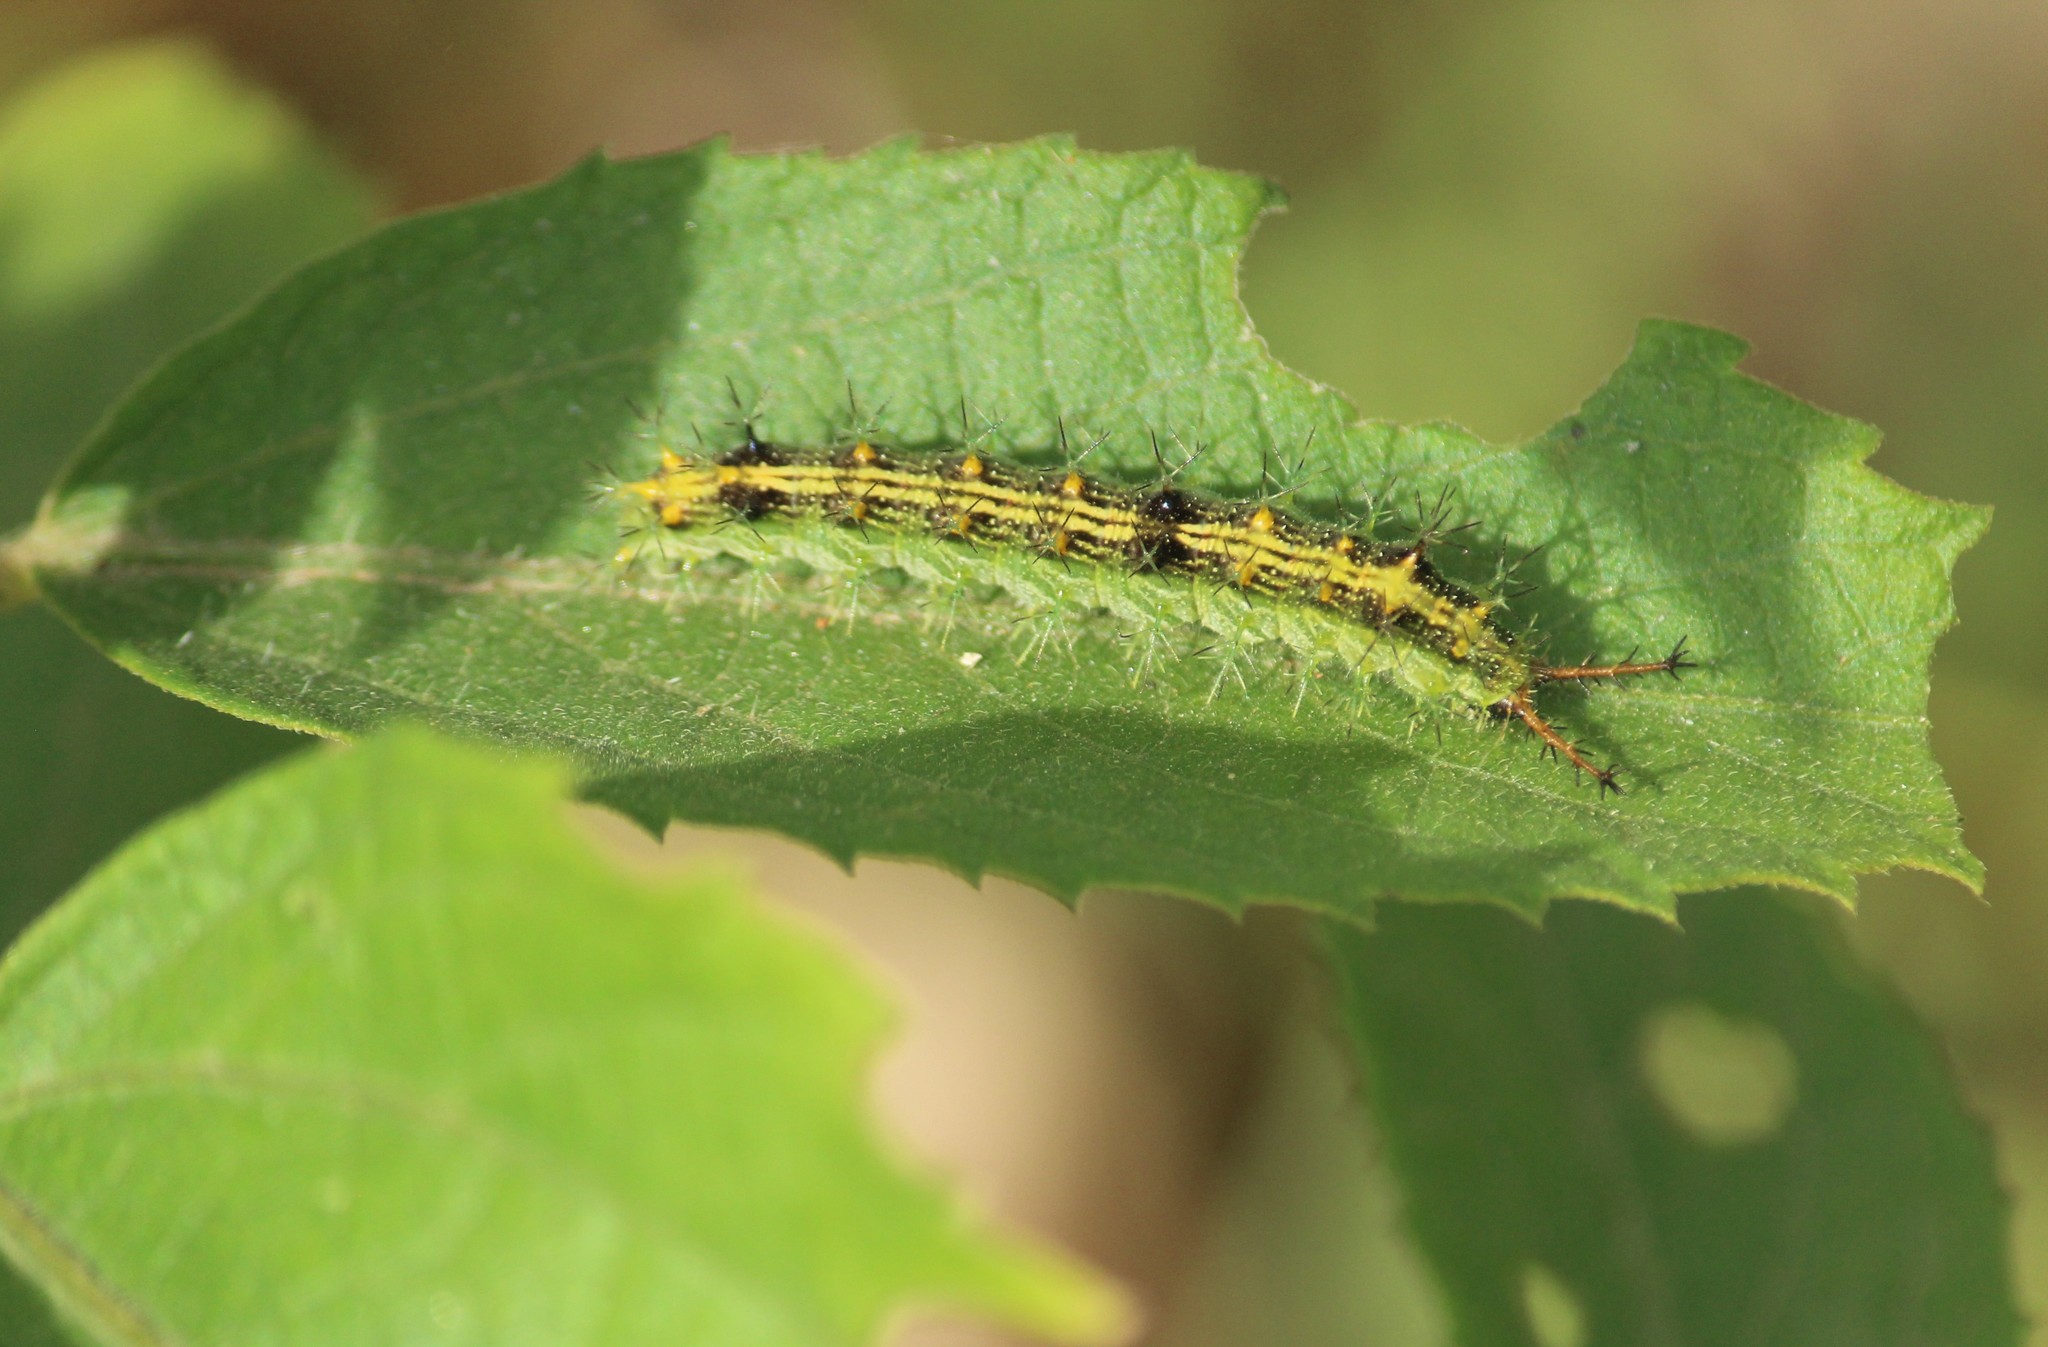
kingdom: Animalia
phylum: Arthropoda
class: Insecta
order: Lepidoptera
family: Nymphalidae
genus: Ariadne
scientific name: Ariadne merione
